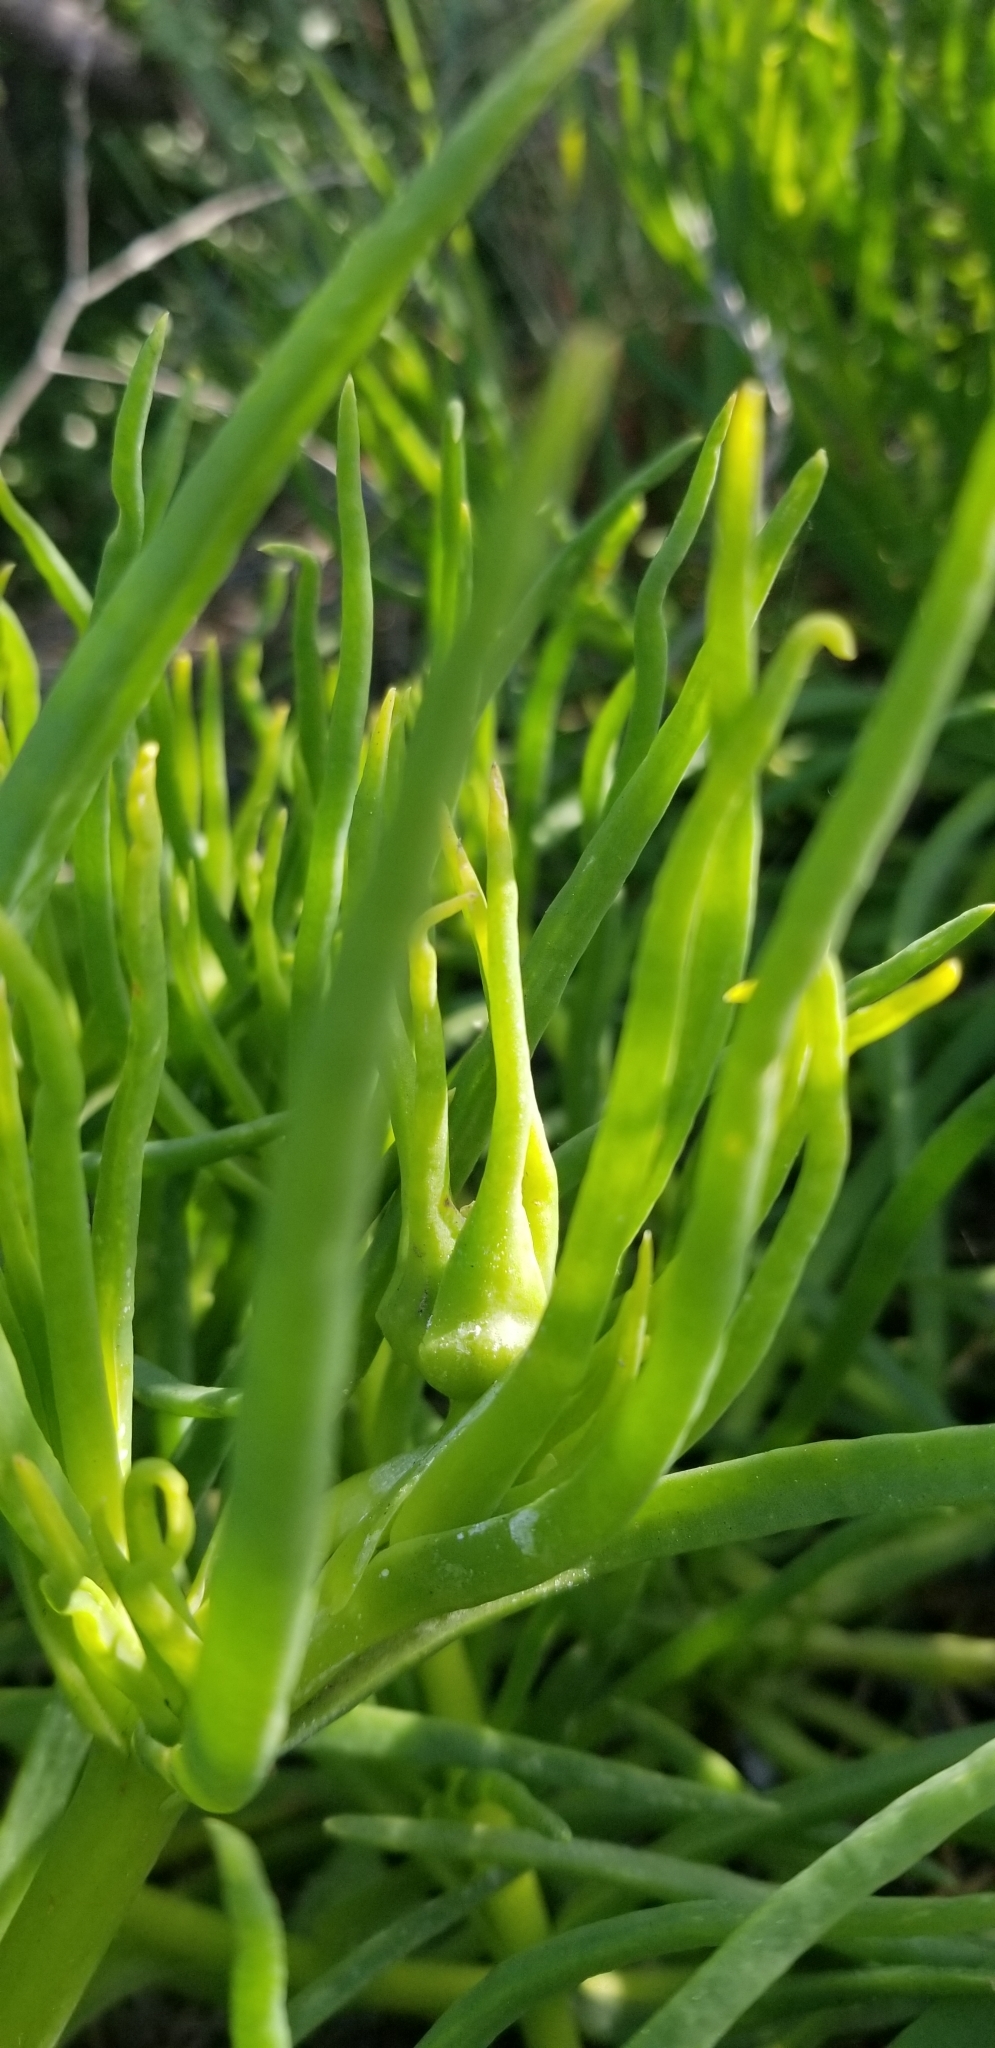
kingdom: Plantae
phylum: Tracheophyta
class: Magnoliopsida
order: Caryophyllales
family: Aizoaceae
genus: Conicosia
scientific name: Conicosia pugioniformis
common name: Narrow-leaved iceplant
